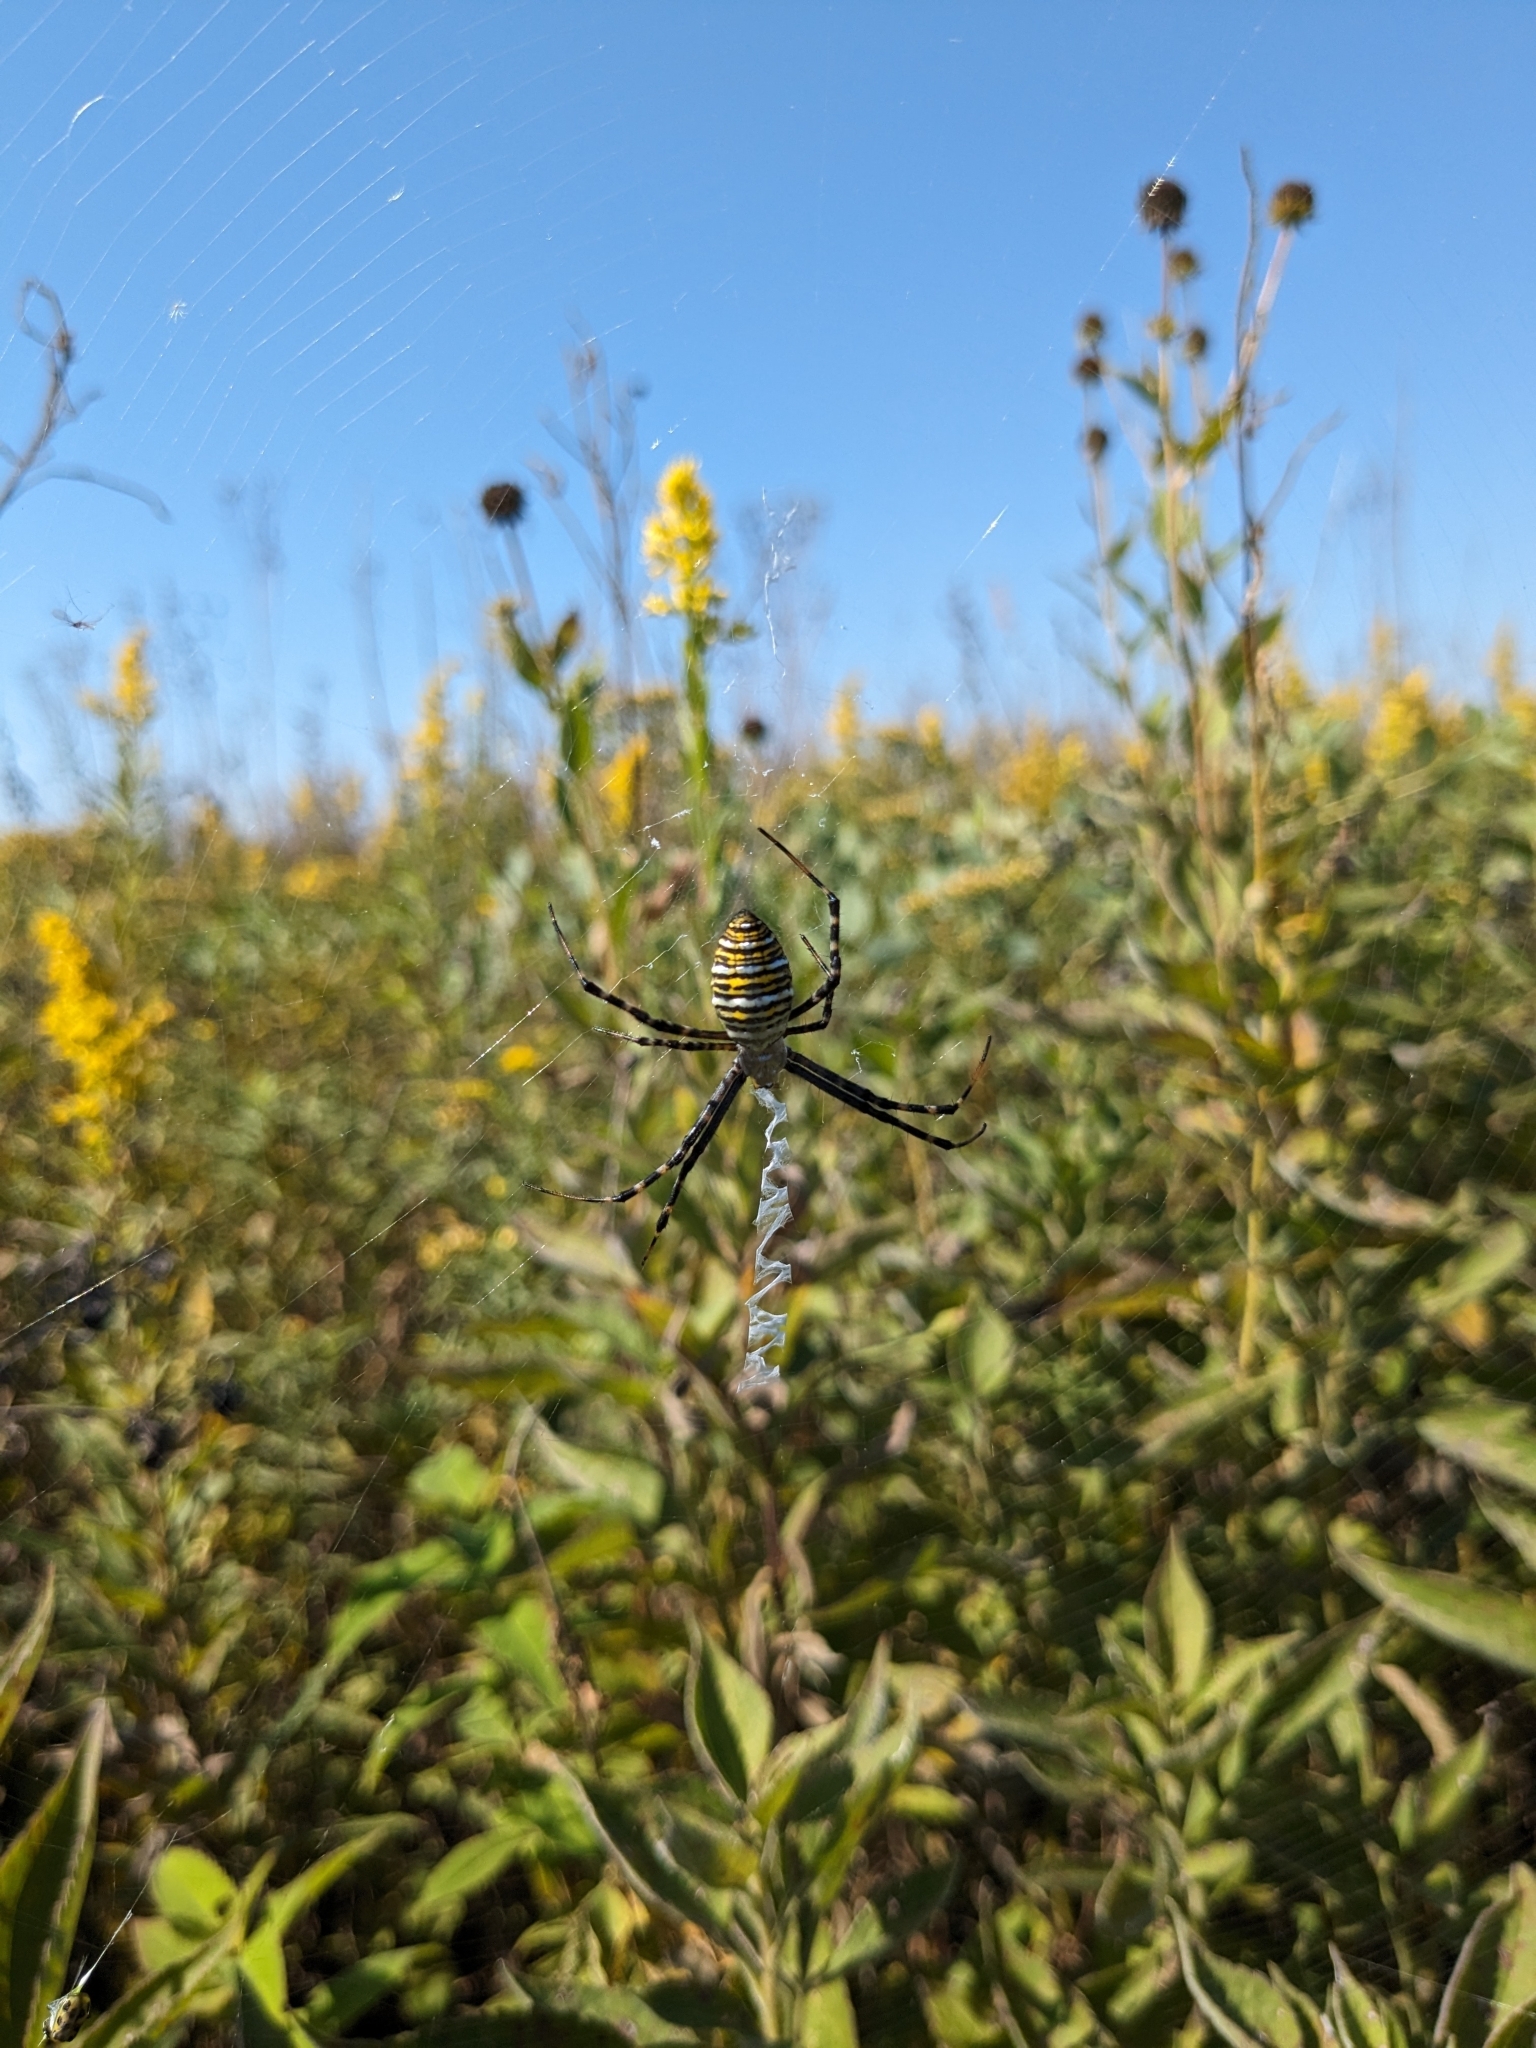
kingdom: Animalia
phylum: Arthropoda
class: Arachnida
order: Araneae
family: Araneidae
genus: Argiope
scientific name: Argiope trifasciata
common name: Banded garden spider
